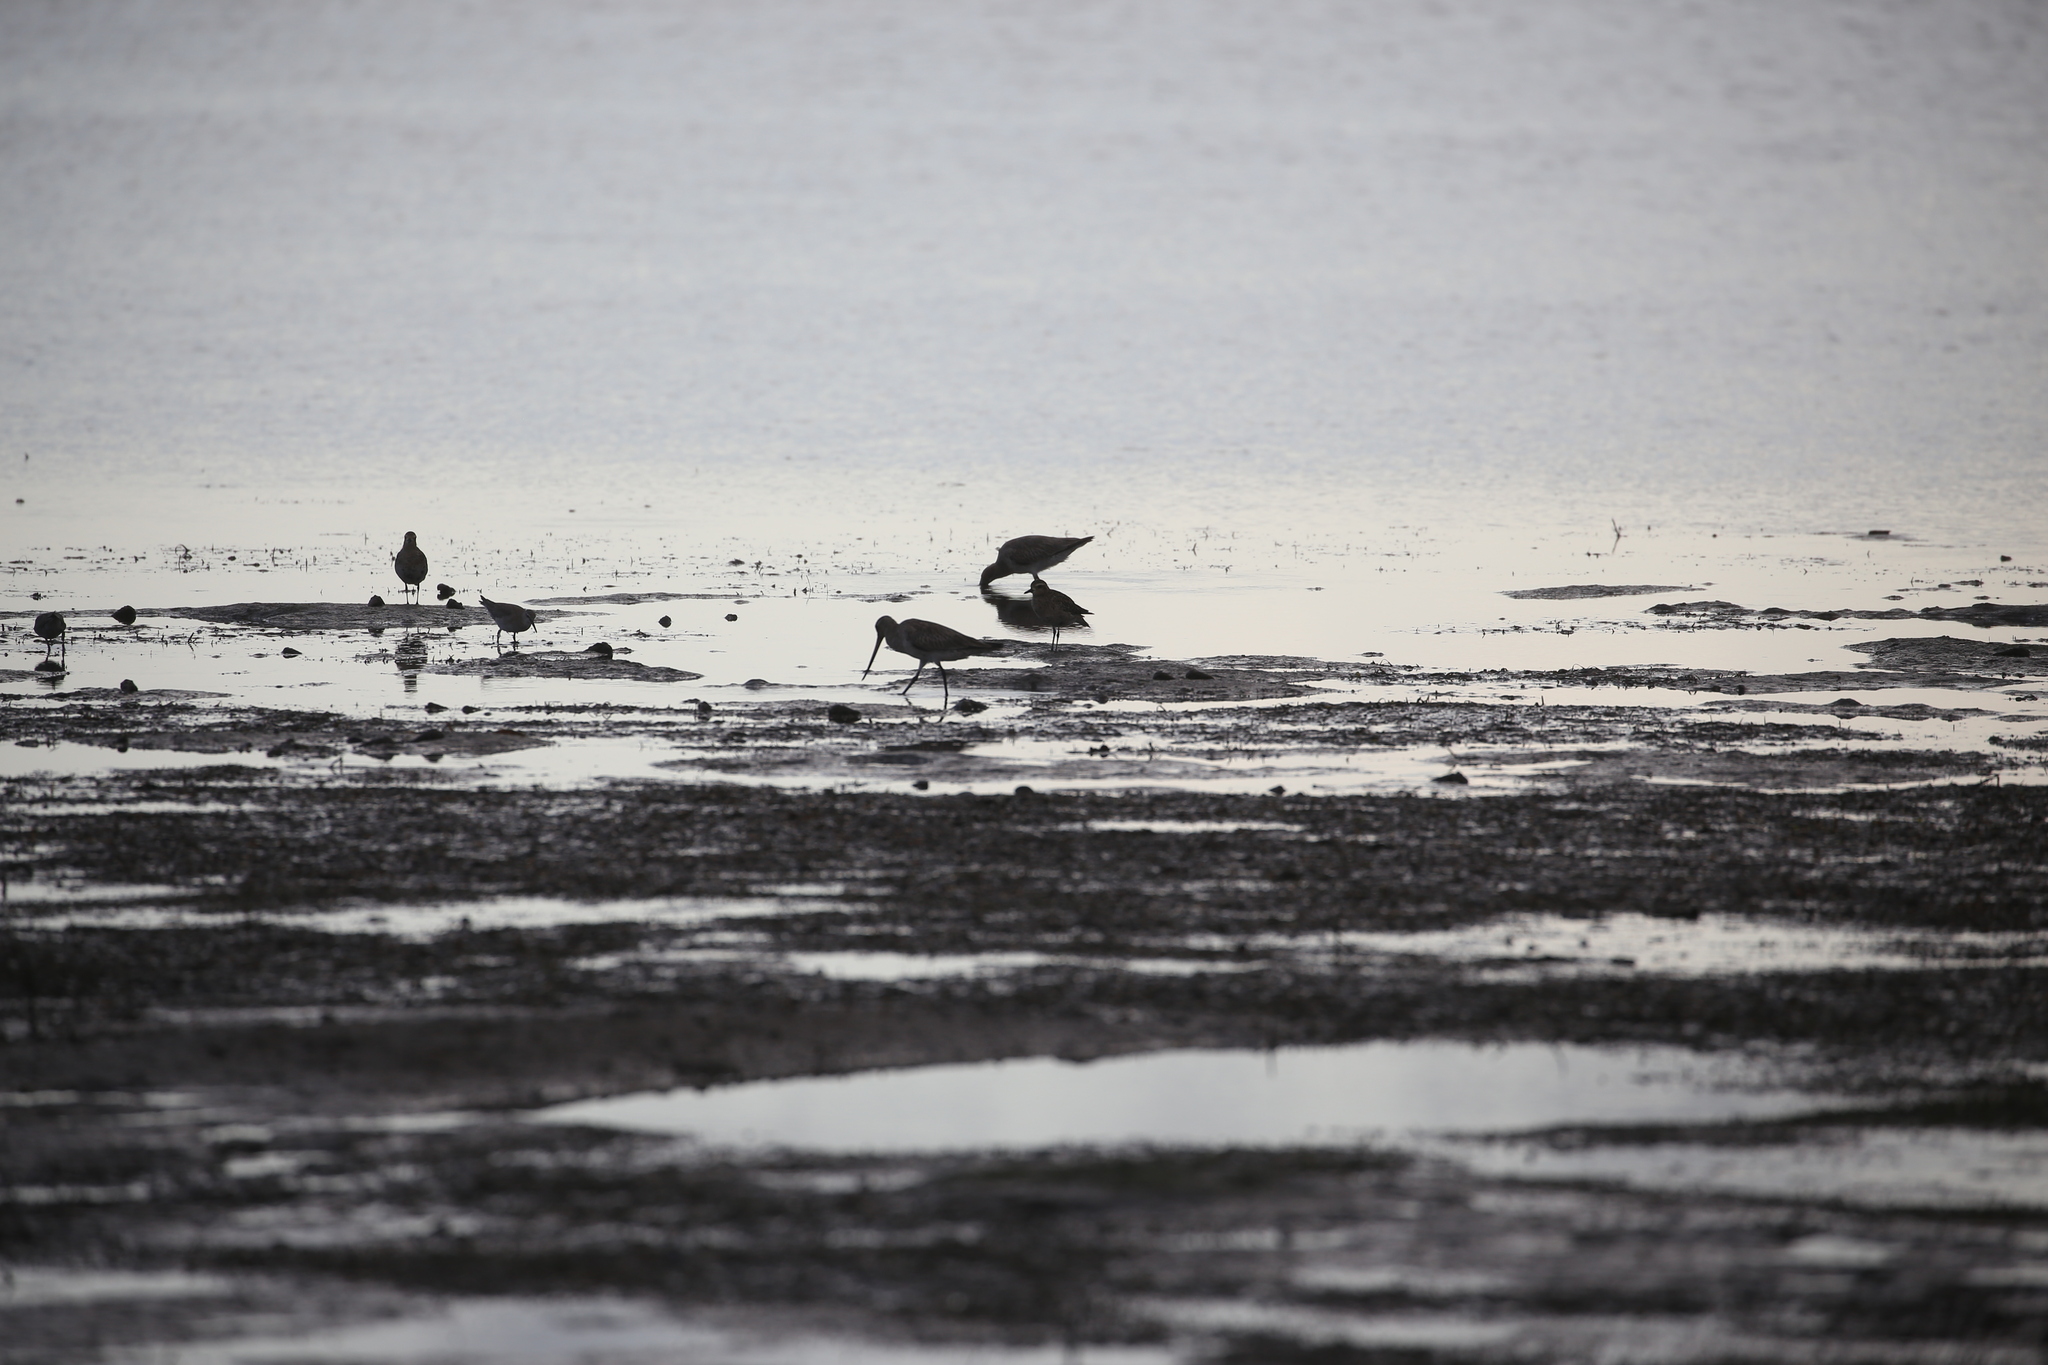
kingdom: Animalia
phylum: Chordata
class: Aves
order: Charadriiformes
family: Scolopacidae
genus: Tringa
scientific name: Tringa brevipes
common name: Grey-tailed tattler
